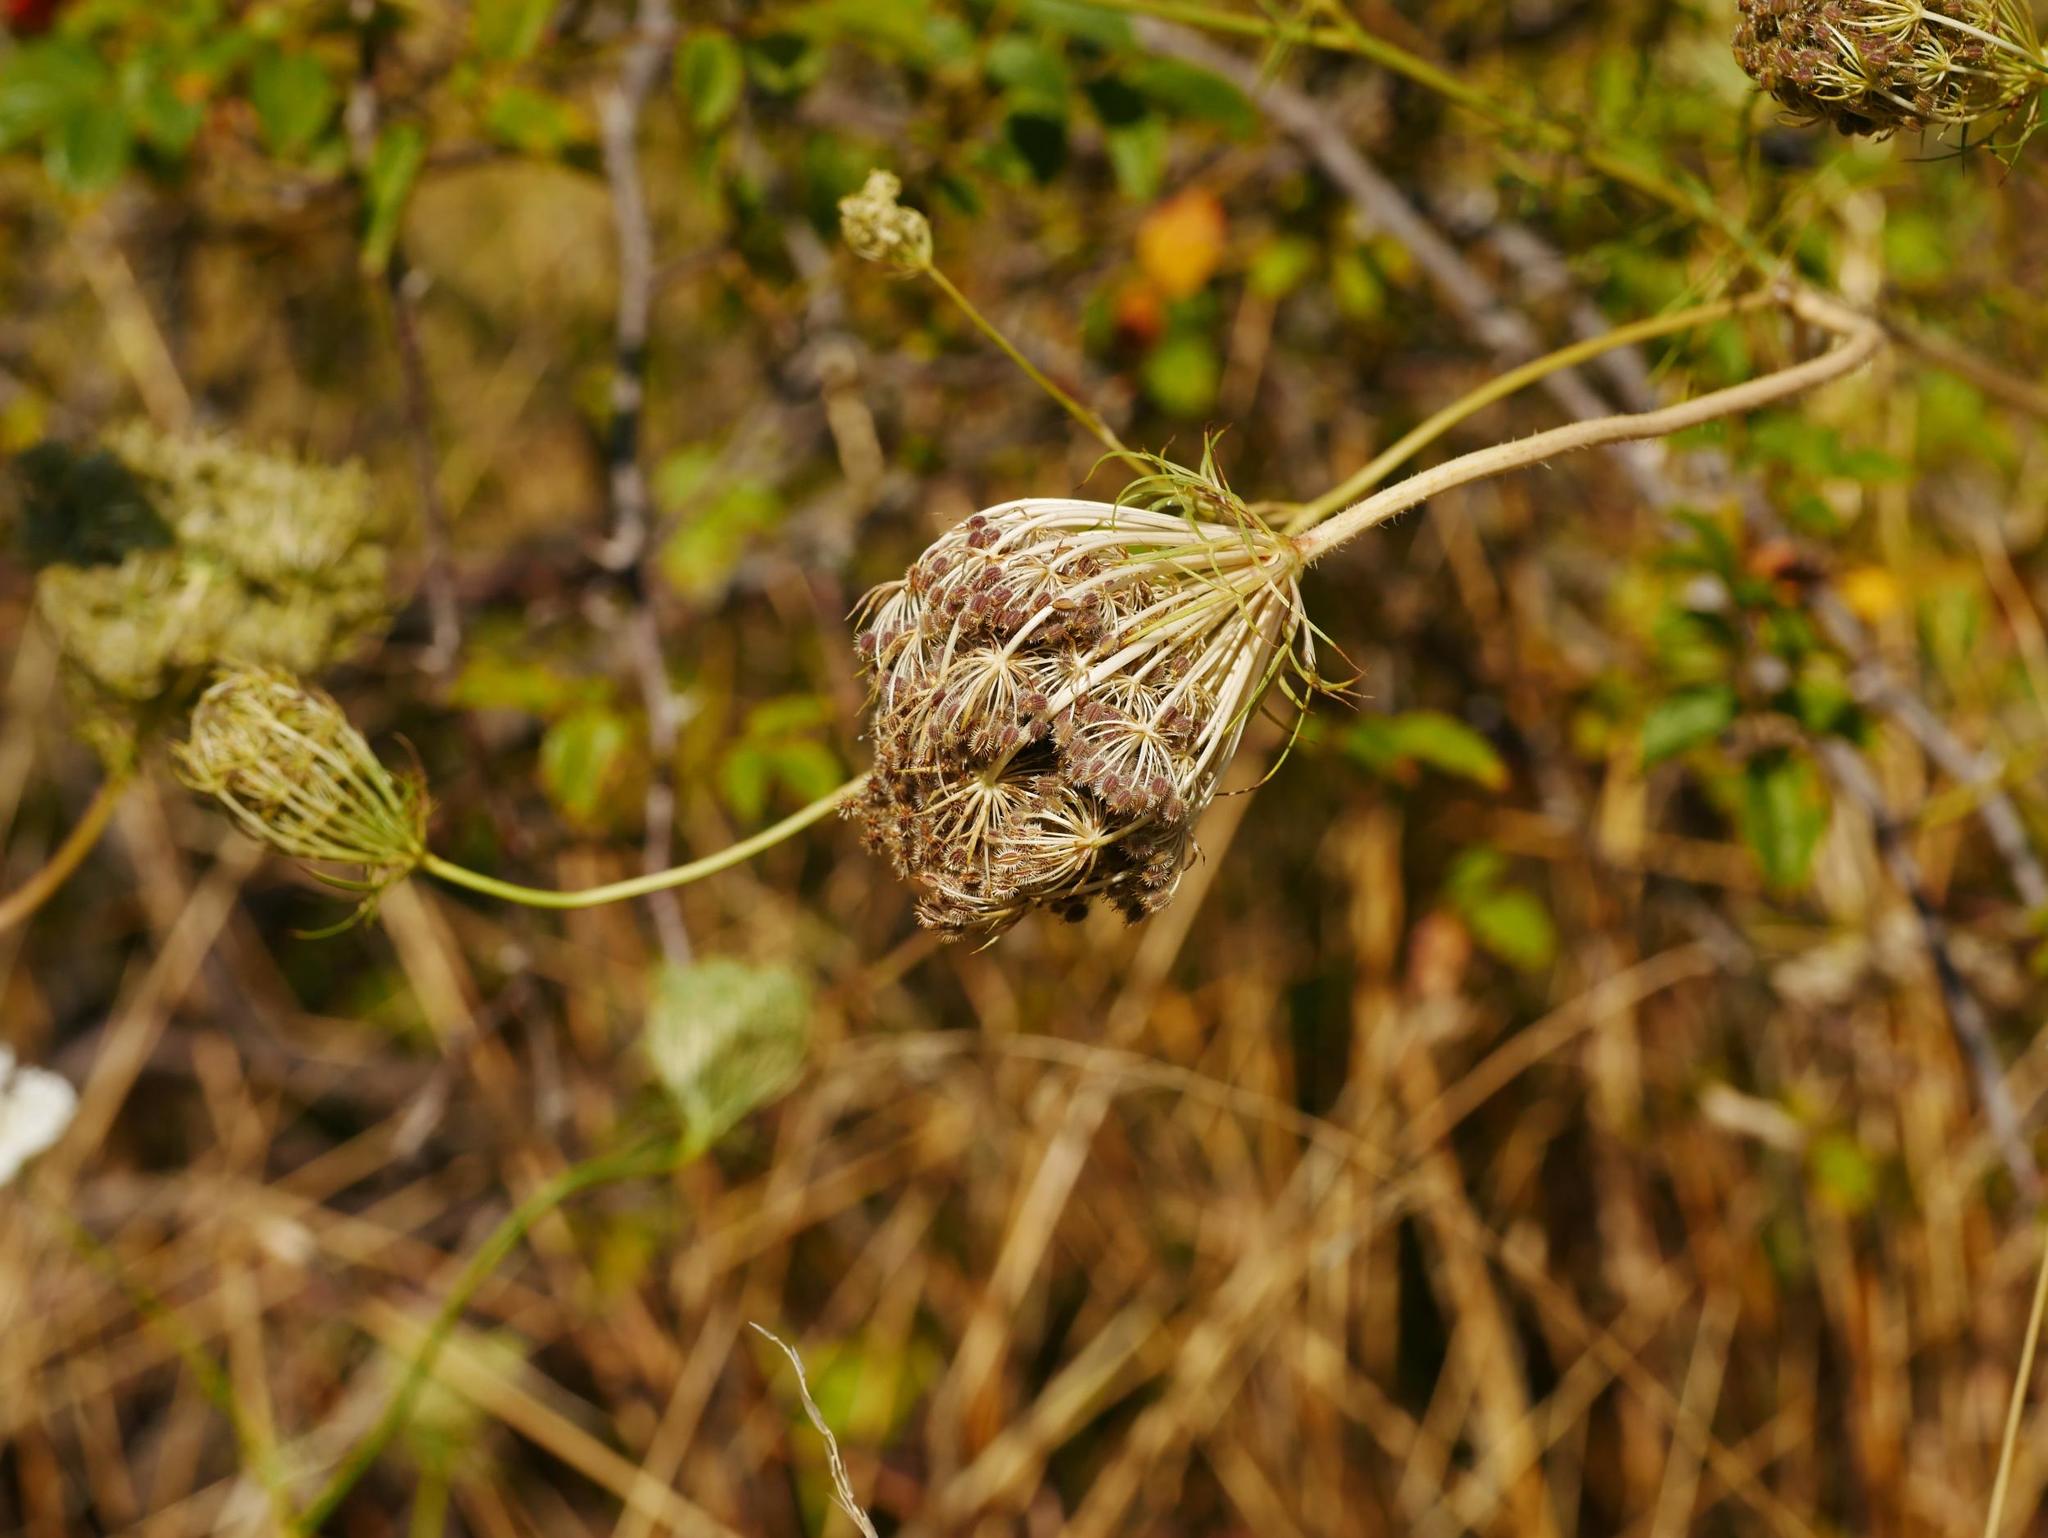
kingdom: Plantae
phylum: Tracheophyta
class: Magnoliopsida
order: Apiales
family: Apiaceae
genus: Daucus
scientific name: Daucus carota
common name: Wild carrot
